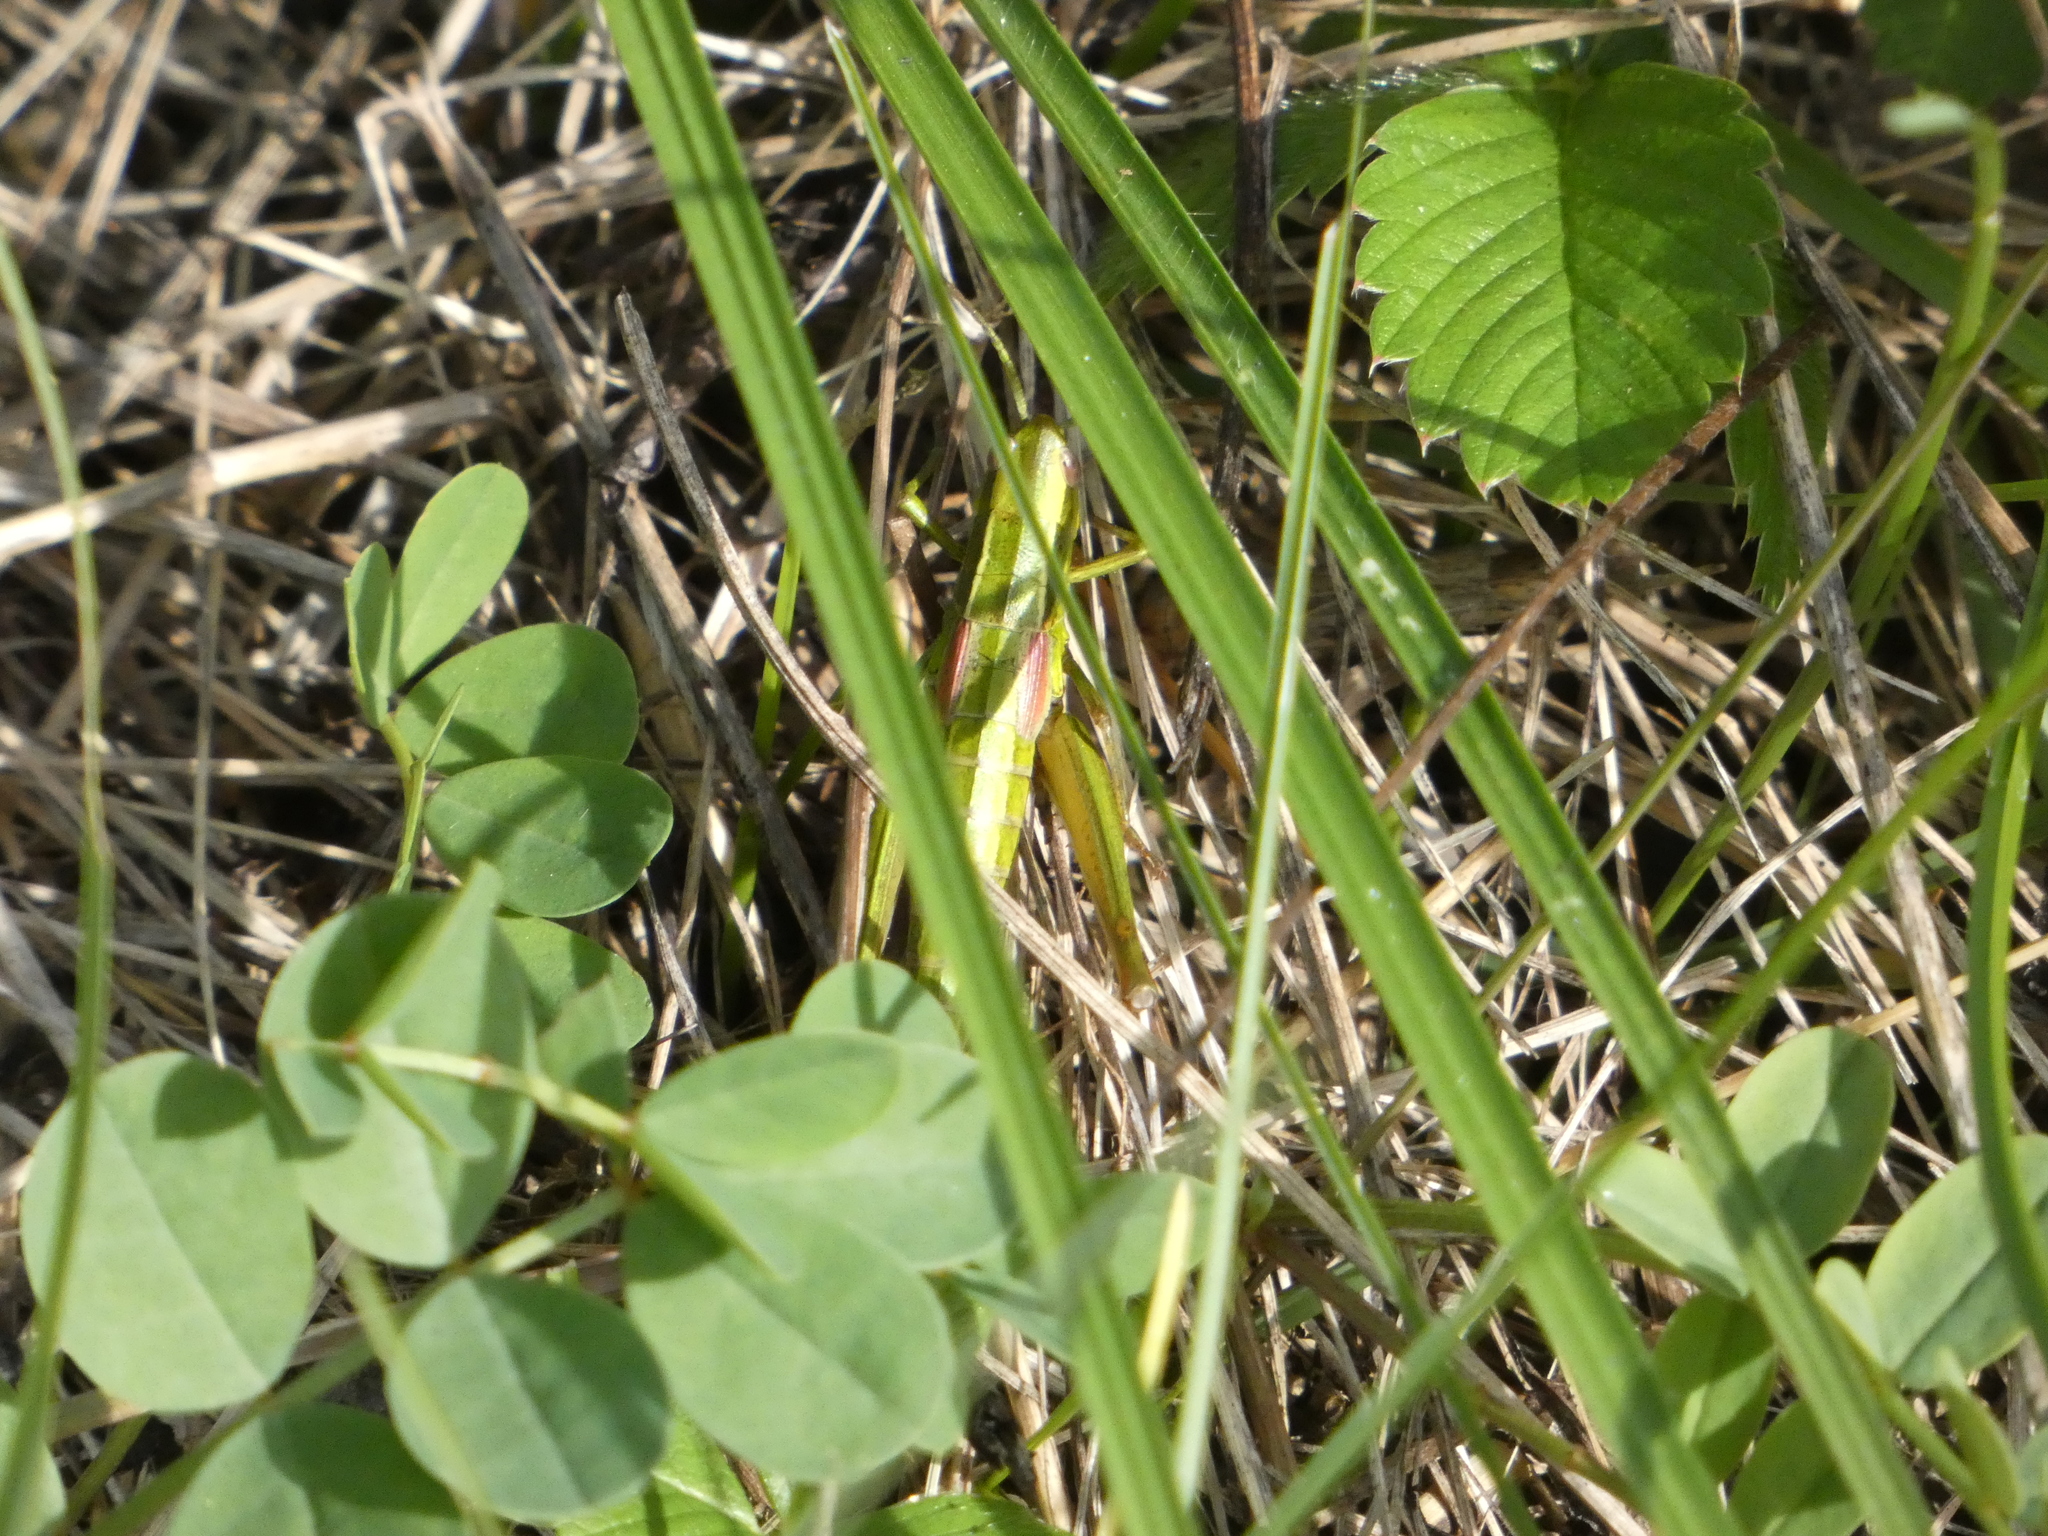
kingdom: Animalia
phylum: Arthropoda
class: Insecta
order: Orthoptera
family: Acrididae
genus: Euthystira
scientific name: Euthystira brachyptera
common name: Small gold grasshopper
